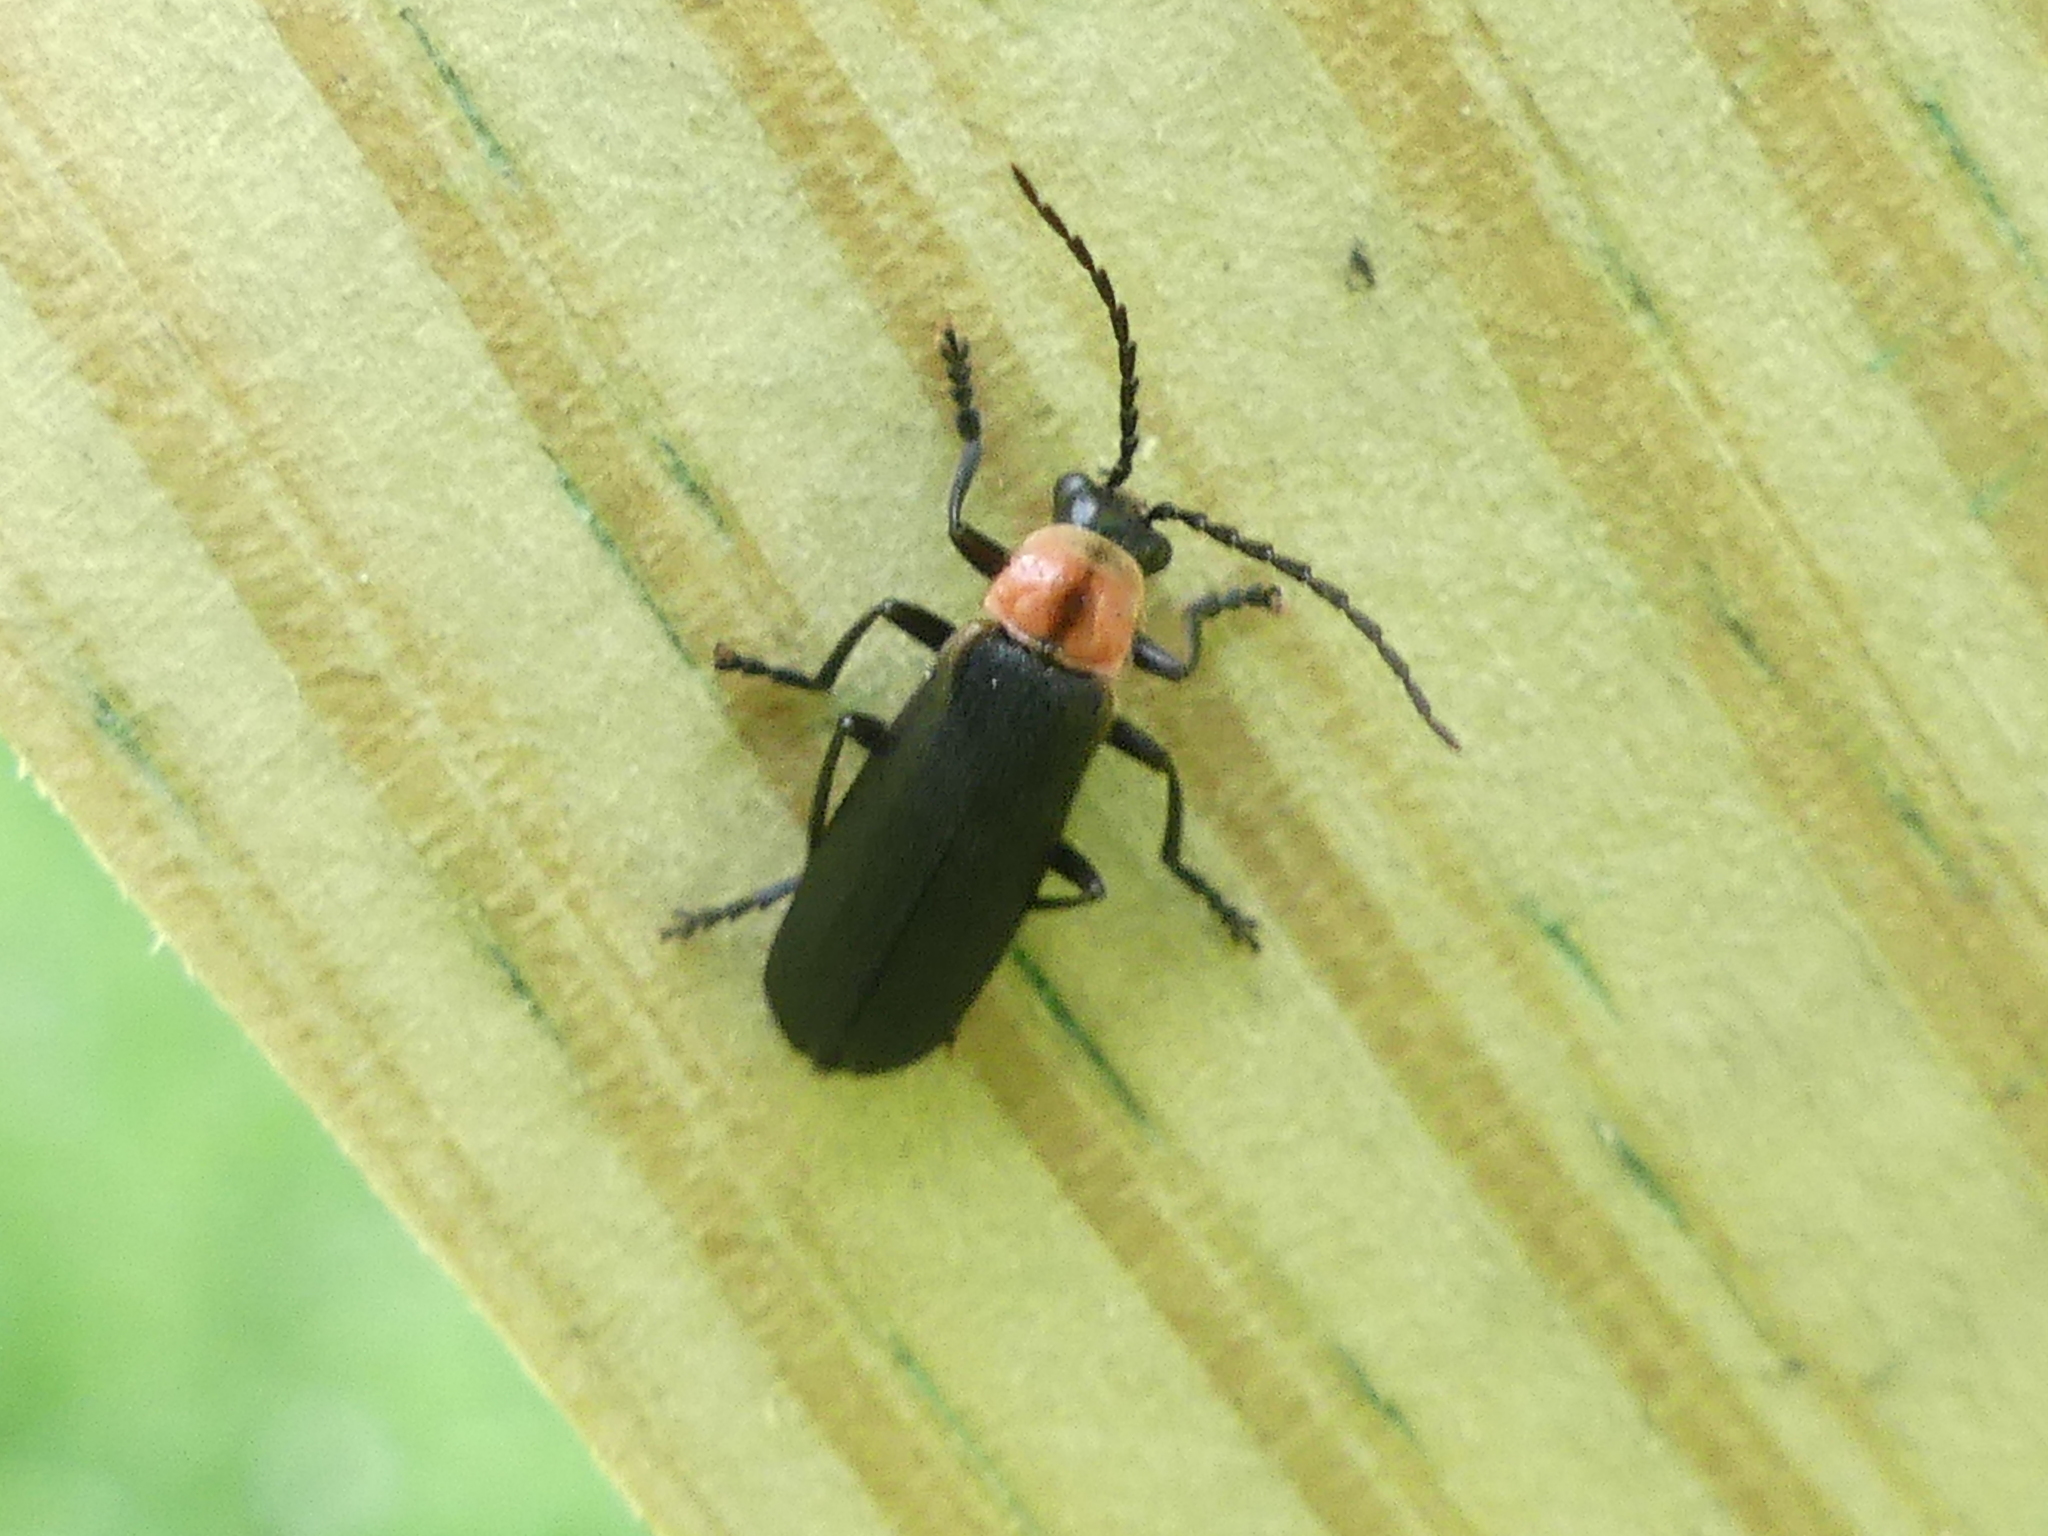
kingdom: Animalia
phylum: Arthropoda
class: Insecta
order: Coleoptera
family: Cantharidae
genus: Discodon
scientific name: Discodon planicolle
